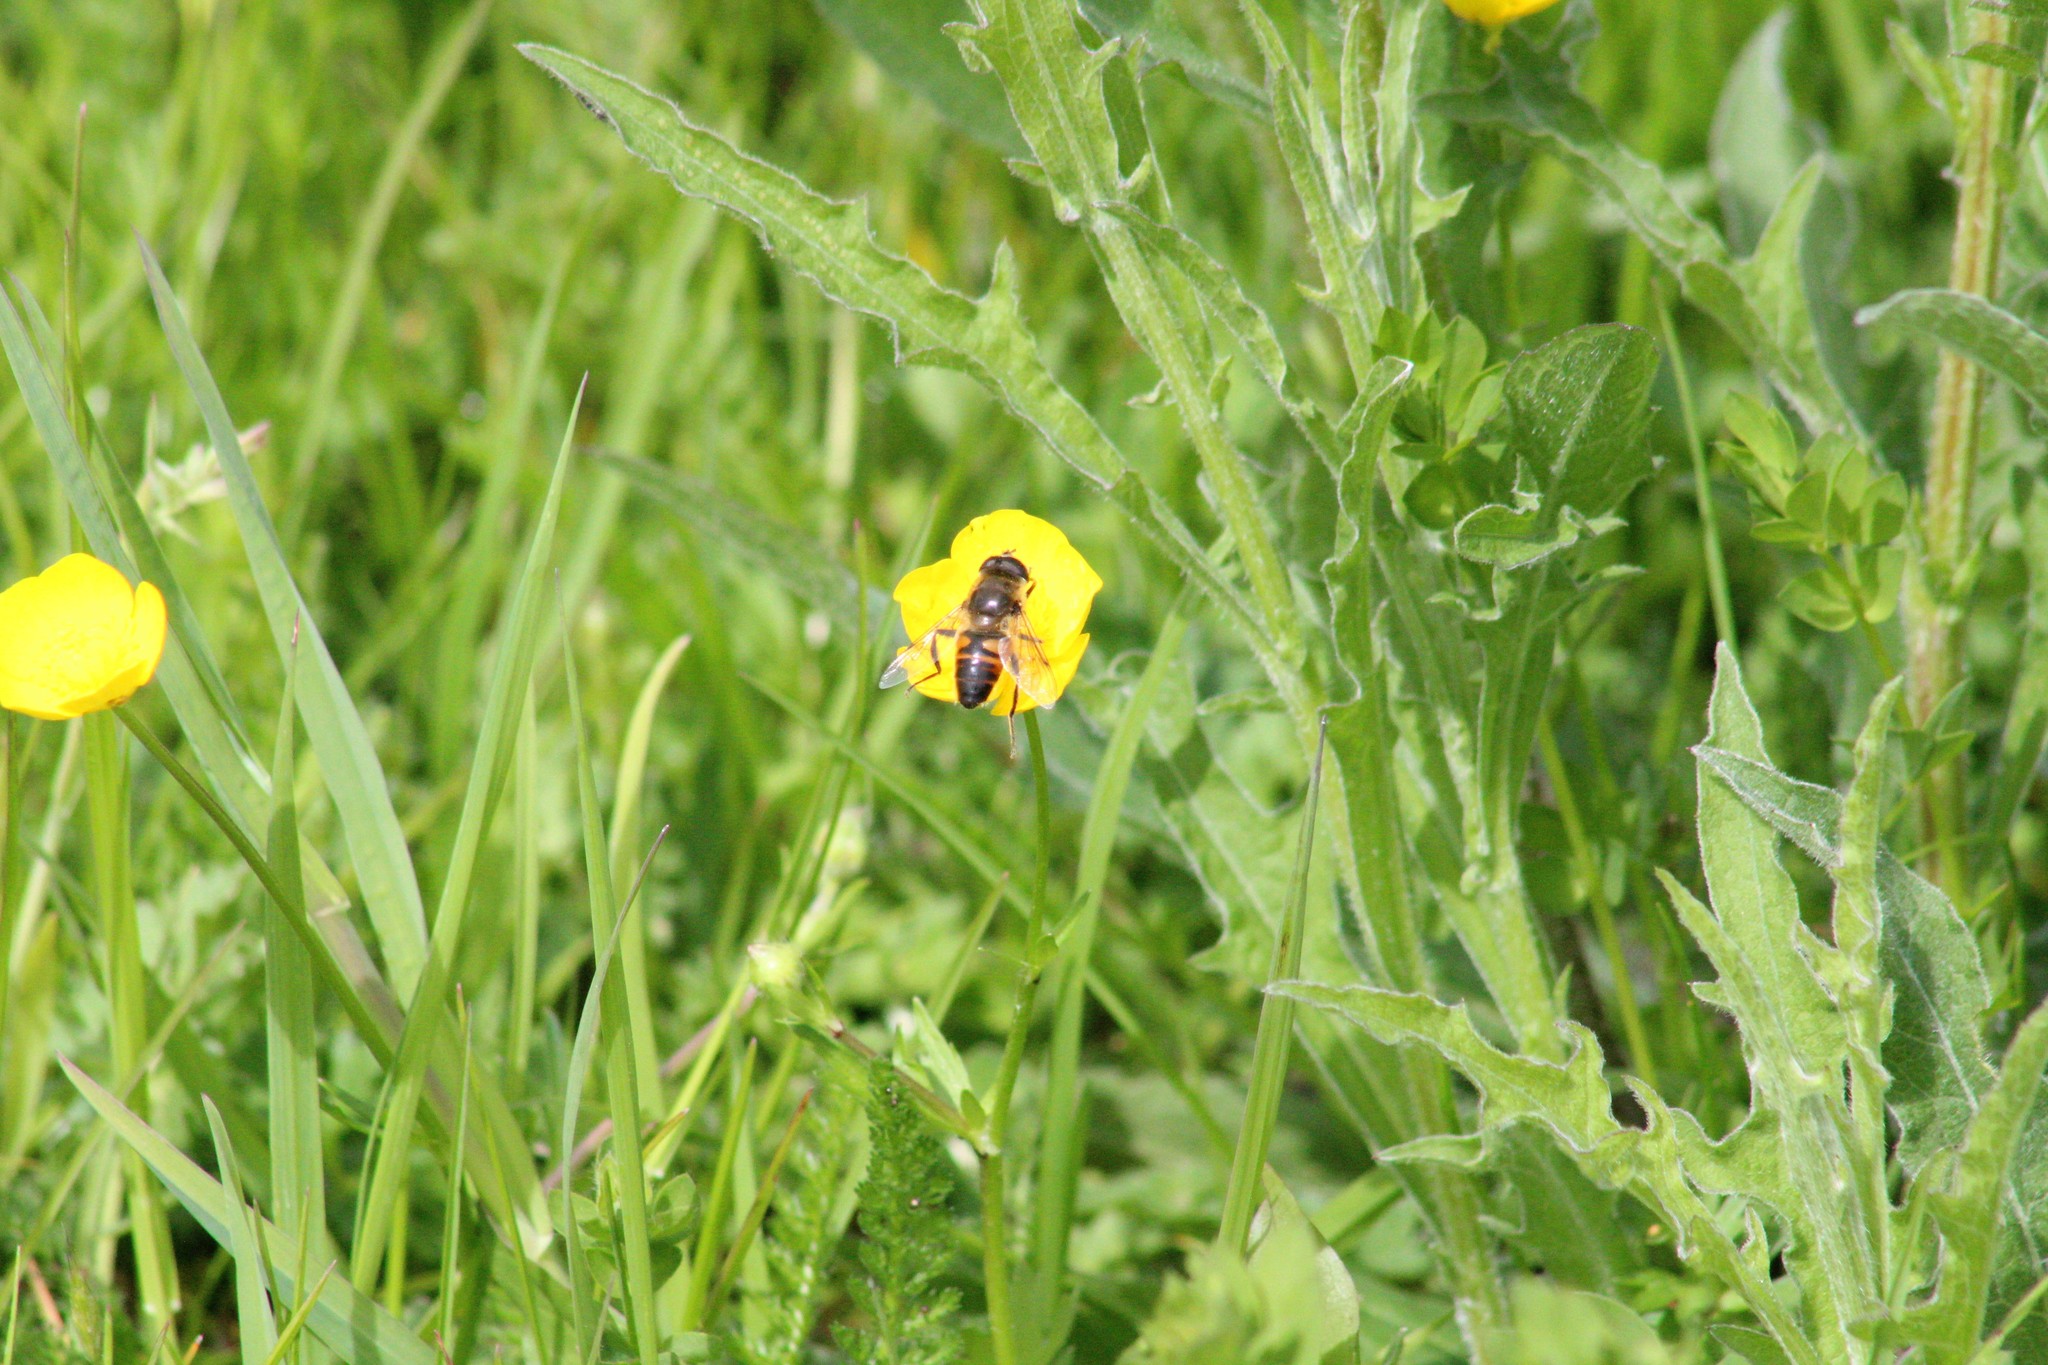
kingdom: Animalia
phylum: Arthropoda
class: Insecta
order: Diptera
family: Syrphidae
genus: Eristalis
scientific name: Eristalis tenax
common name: Drone fly
